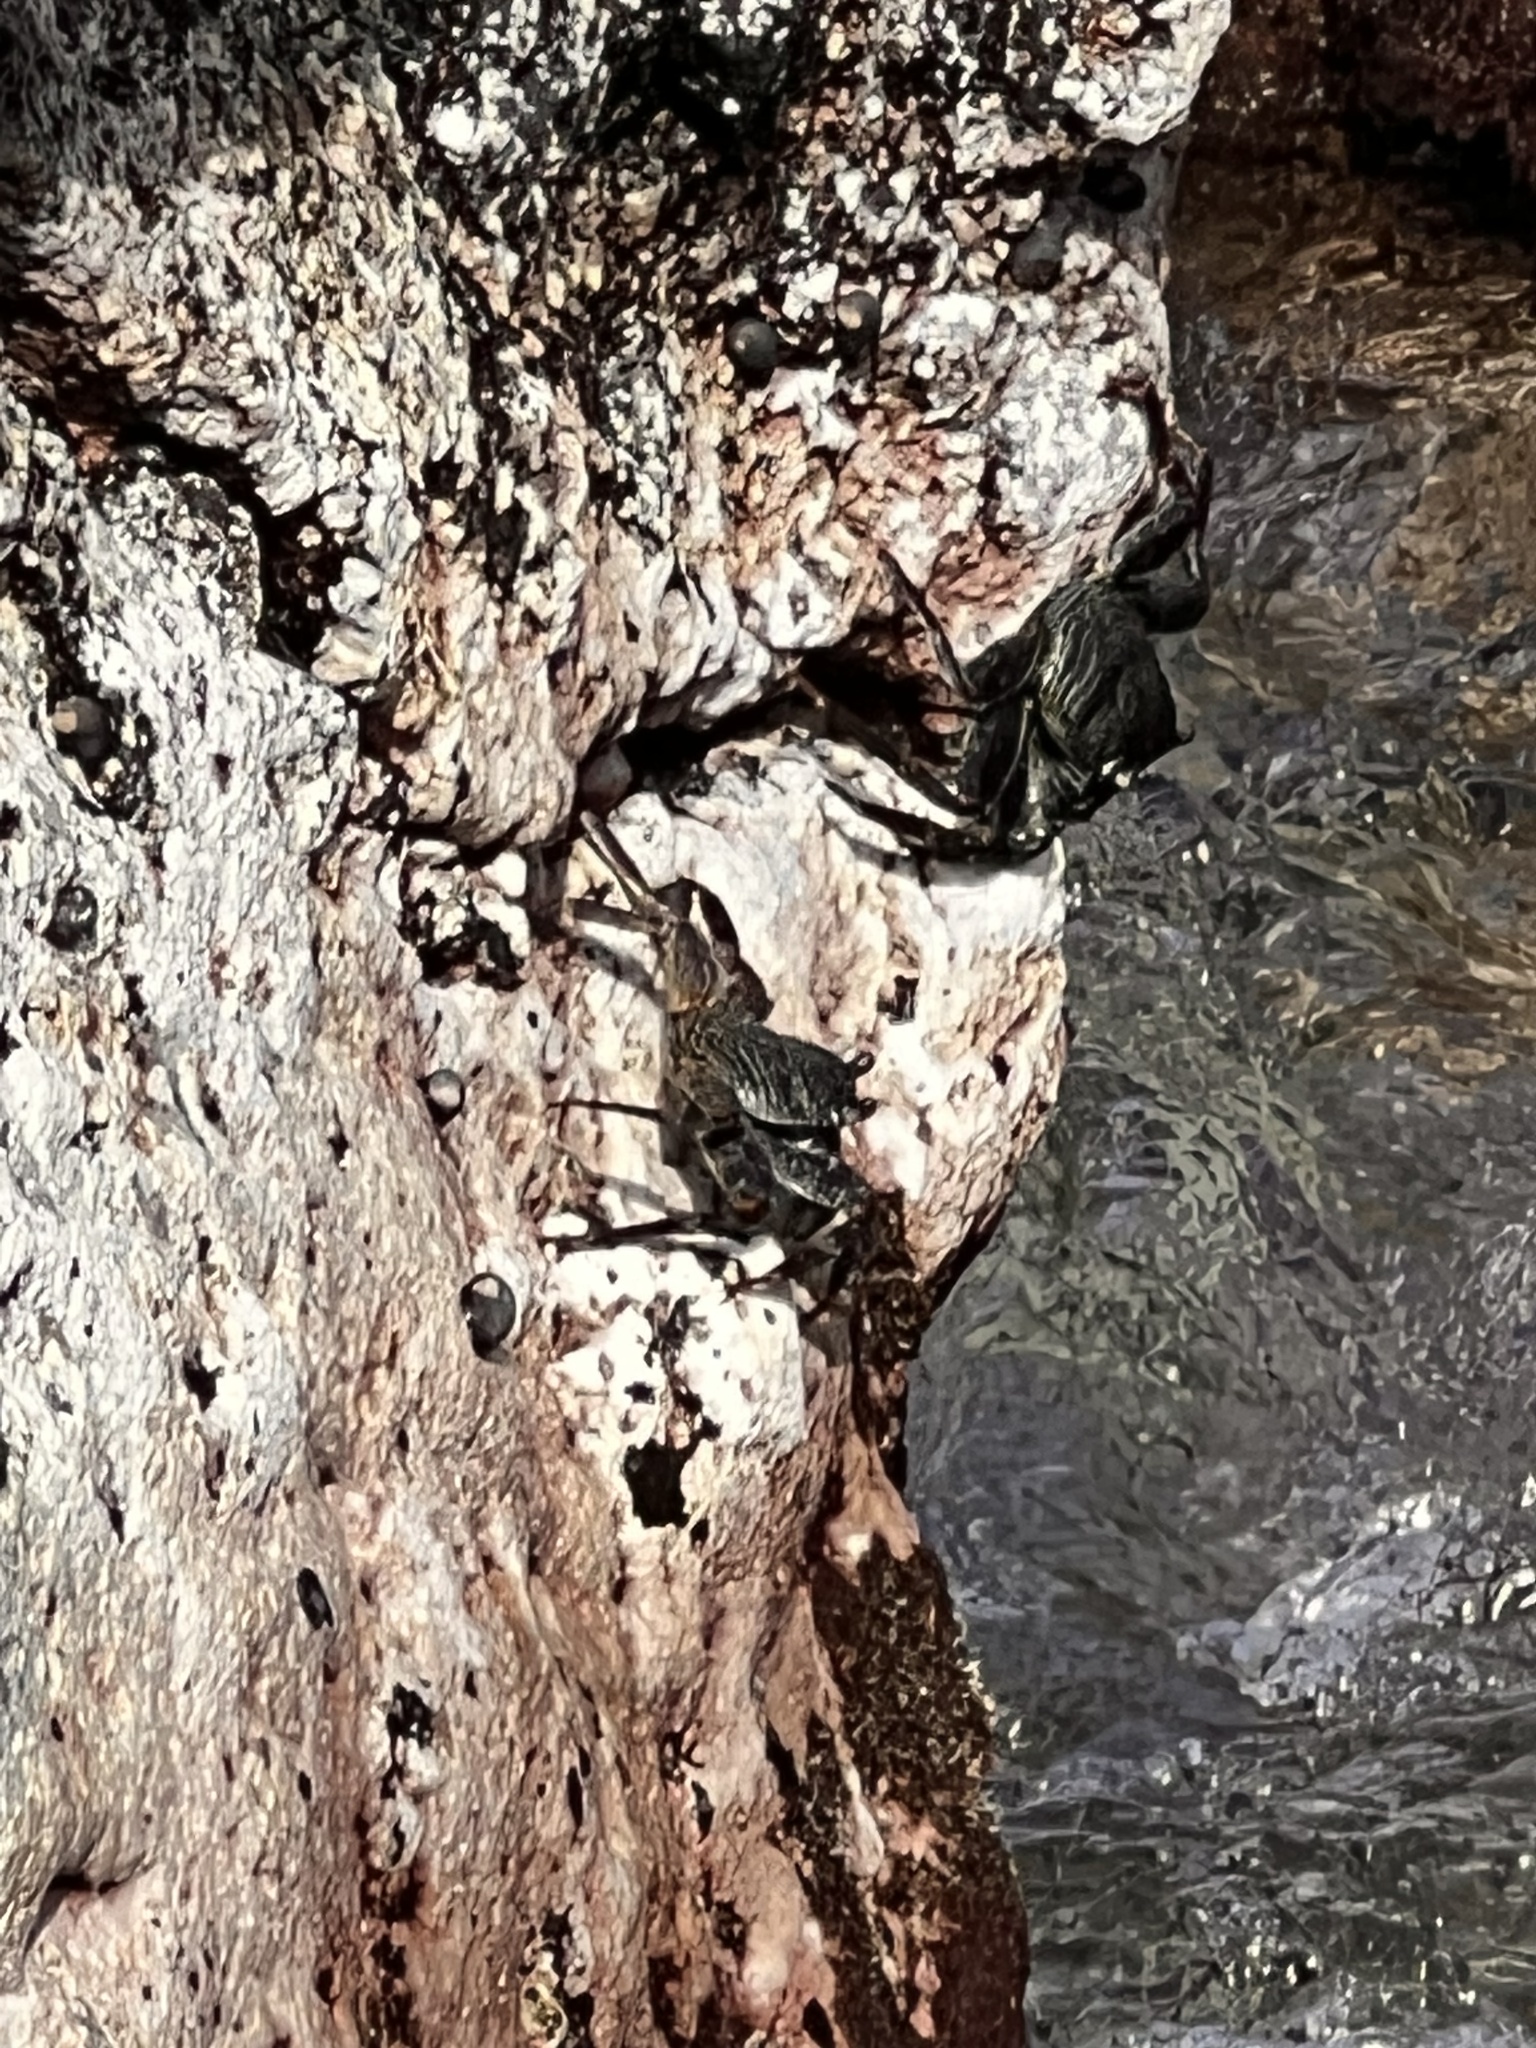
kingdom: Animalia
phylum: Arthropoda
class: Malacostraca
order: Decapoda
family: Grapsidae
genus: Grapsus
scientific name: Grapsus tenuicrustatus
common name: Natal lightfoot crab
